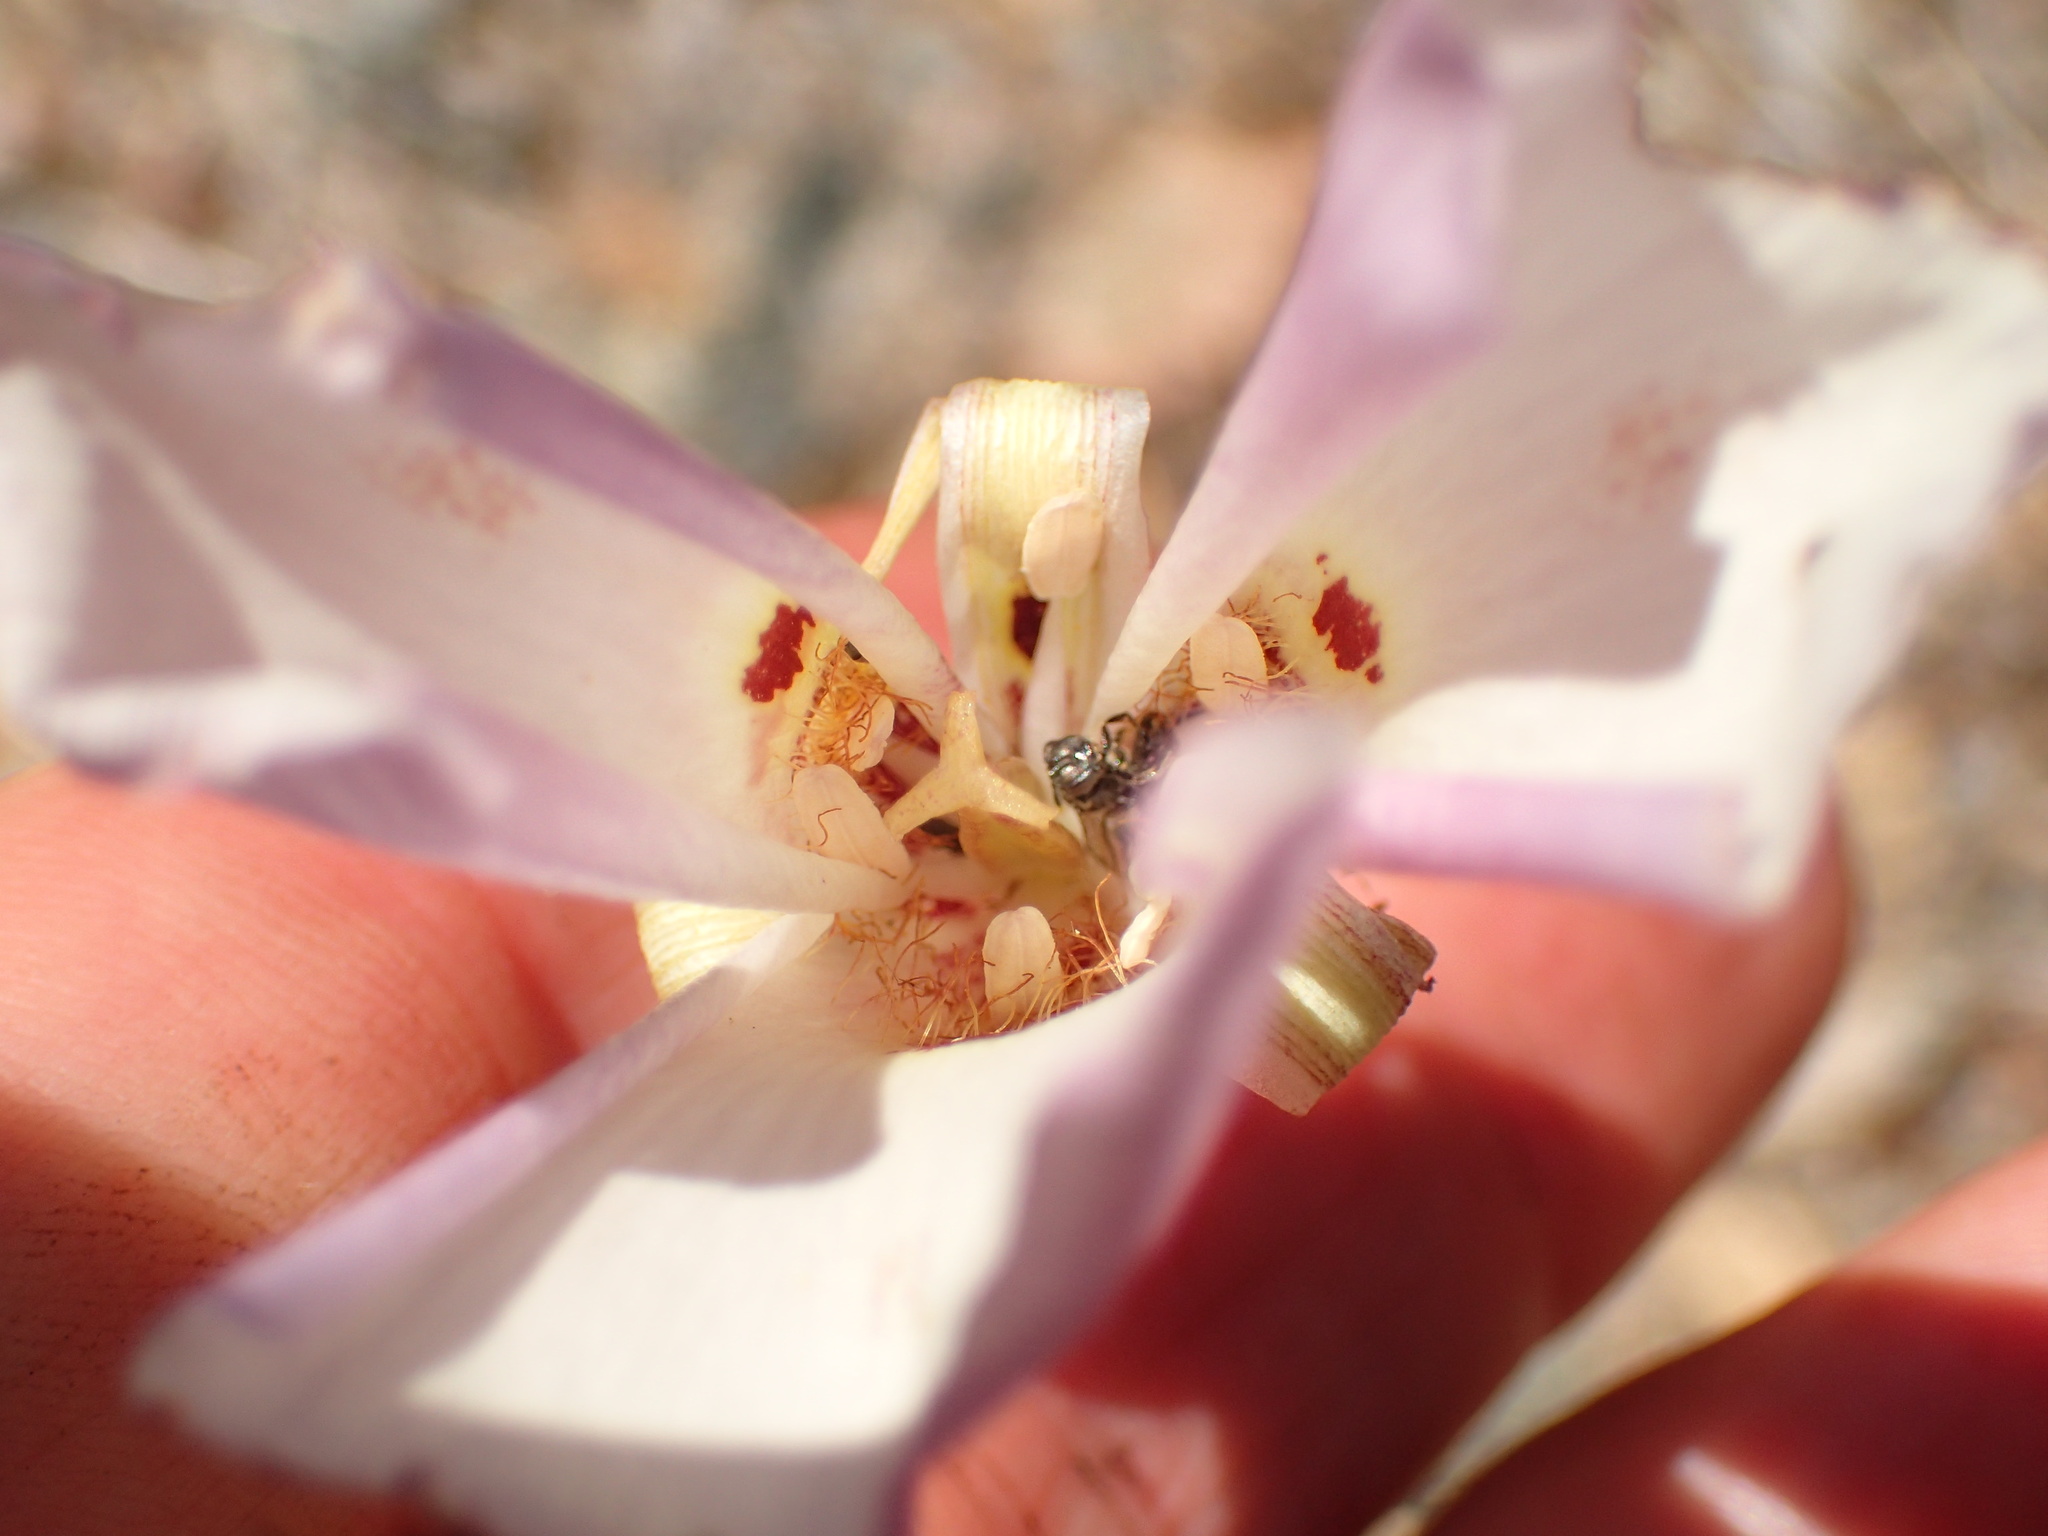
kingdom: Plantae
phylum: Tracheophyta
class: Liliopsida
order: Liliales
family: Liliaceae
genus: Calochortus
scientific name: Calochortus venustus
